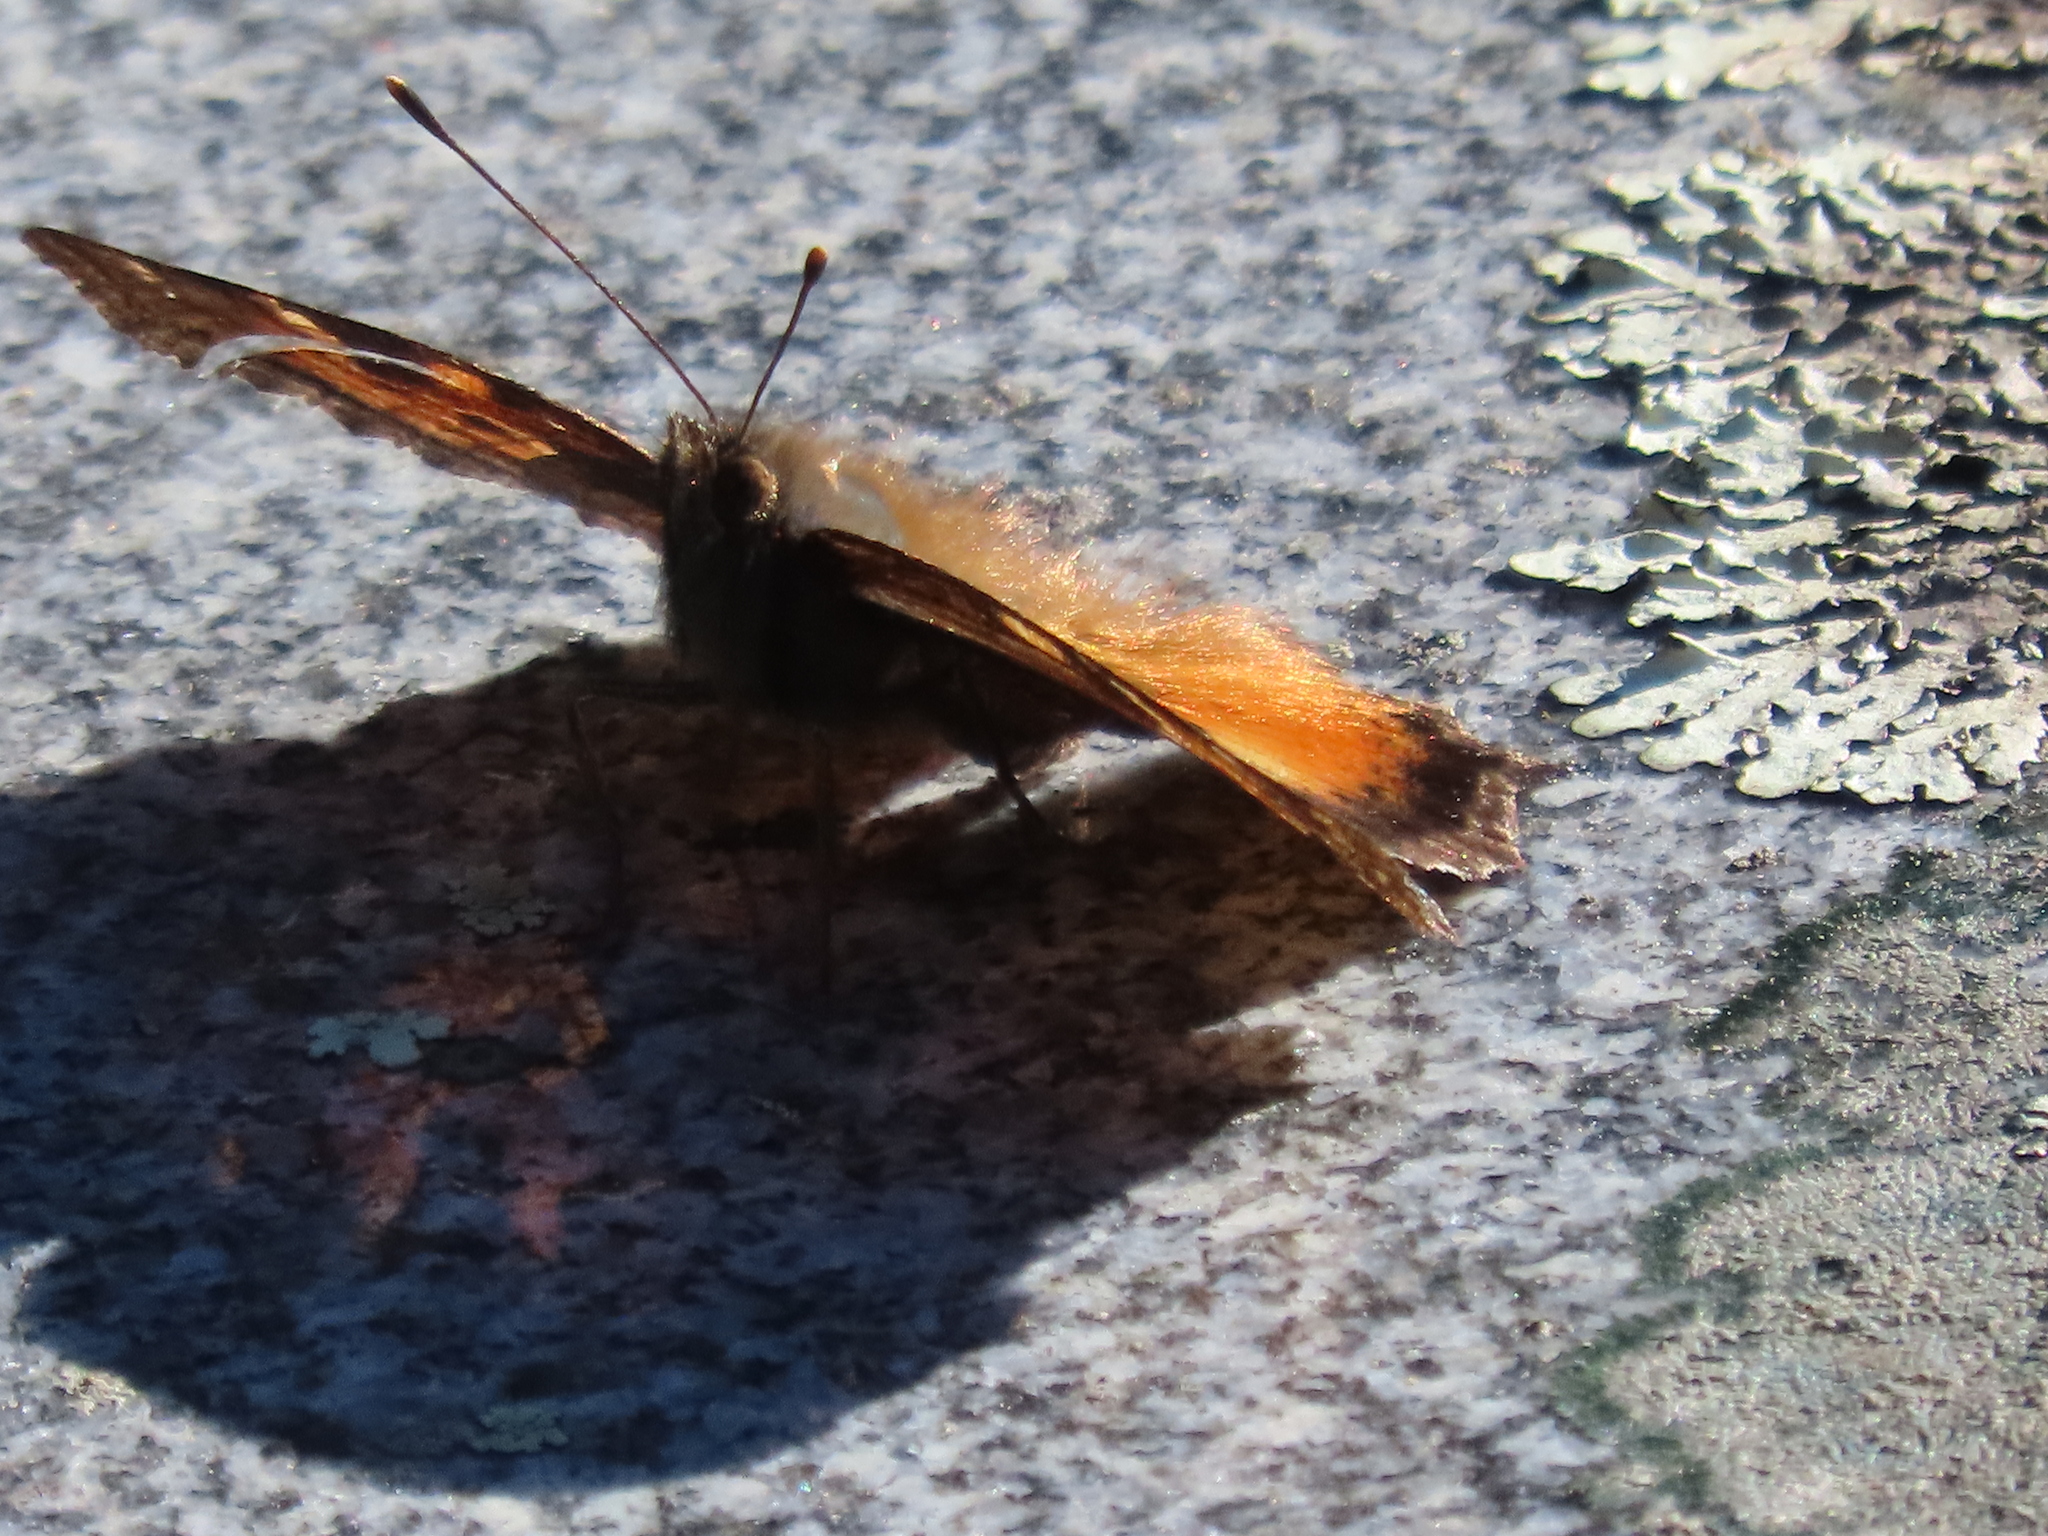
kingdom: Animalia
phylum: Arthropoda
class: Insecta
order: Lepidoptera
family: Nymphalidae
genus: Nymphalis
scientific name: Nymphalis californica
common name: California tortoiseshell
